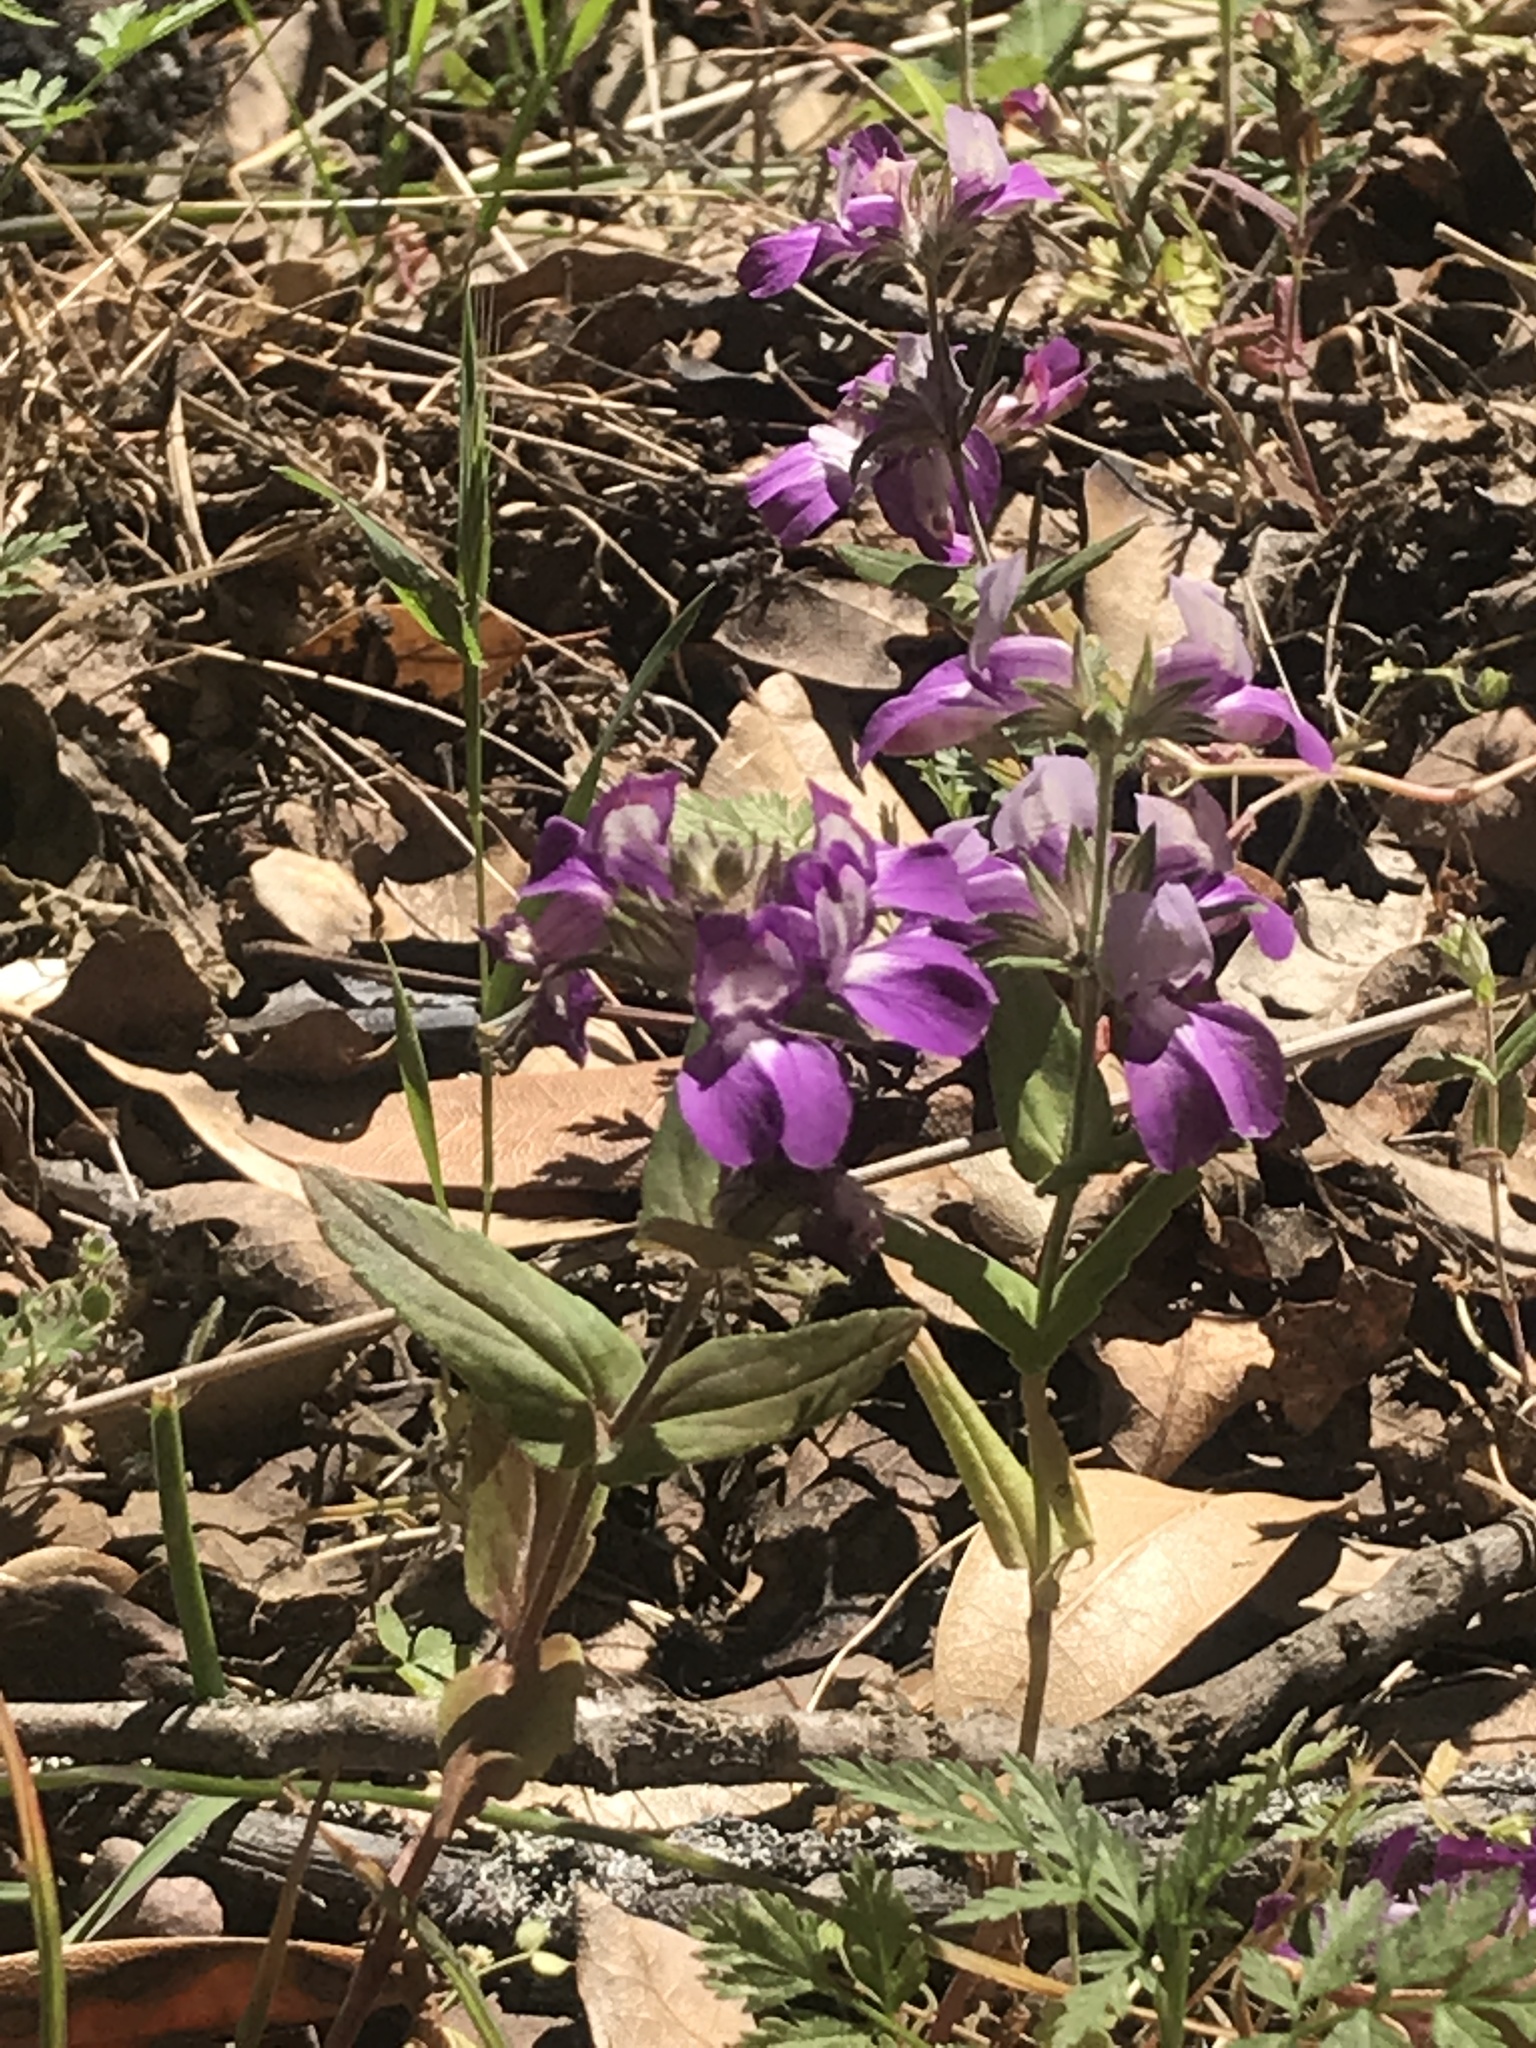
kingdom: Plantae
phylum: Tracheophyta
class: Magnoliopsida
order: Lamiales
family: Plantaginaceae
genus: Collinsia
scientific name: Collinsia heterophylla
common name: Chinese-houses
